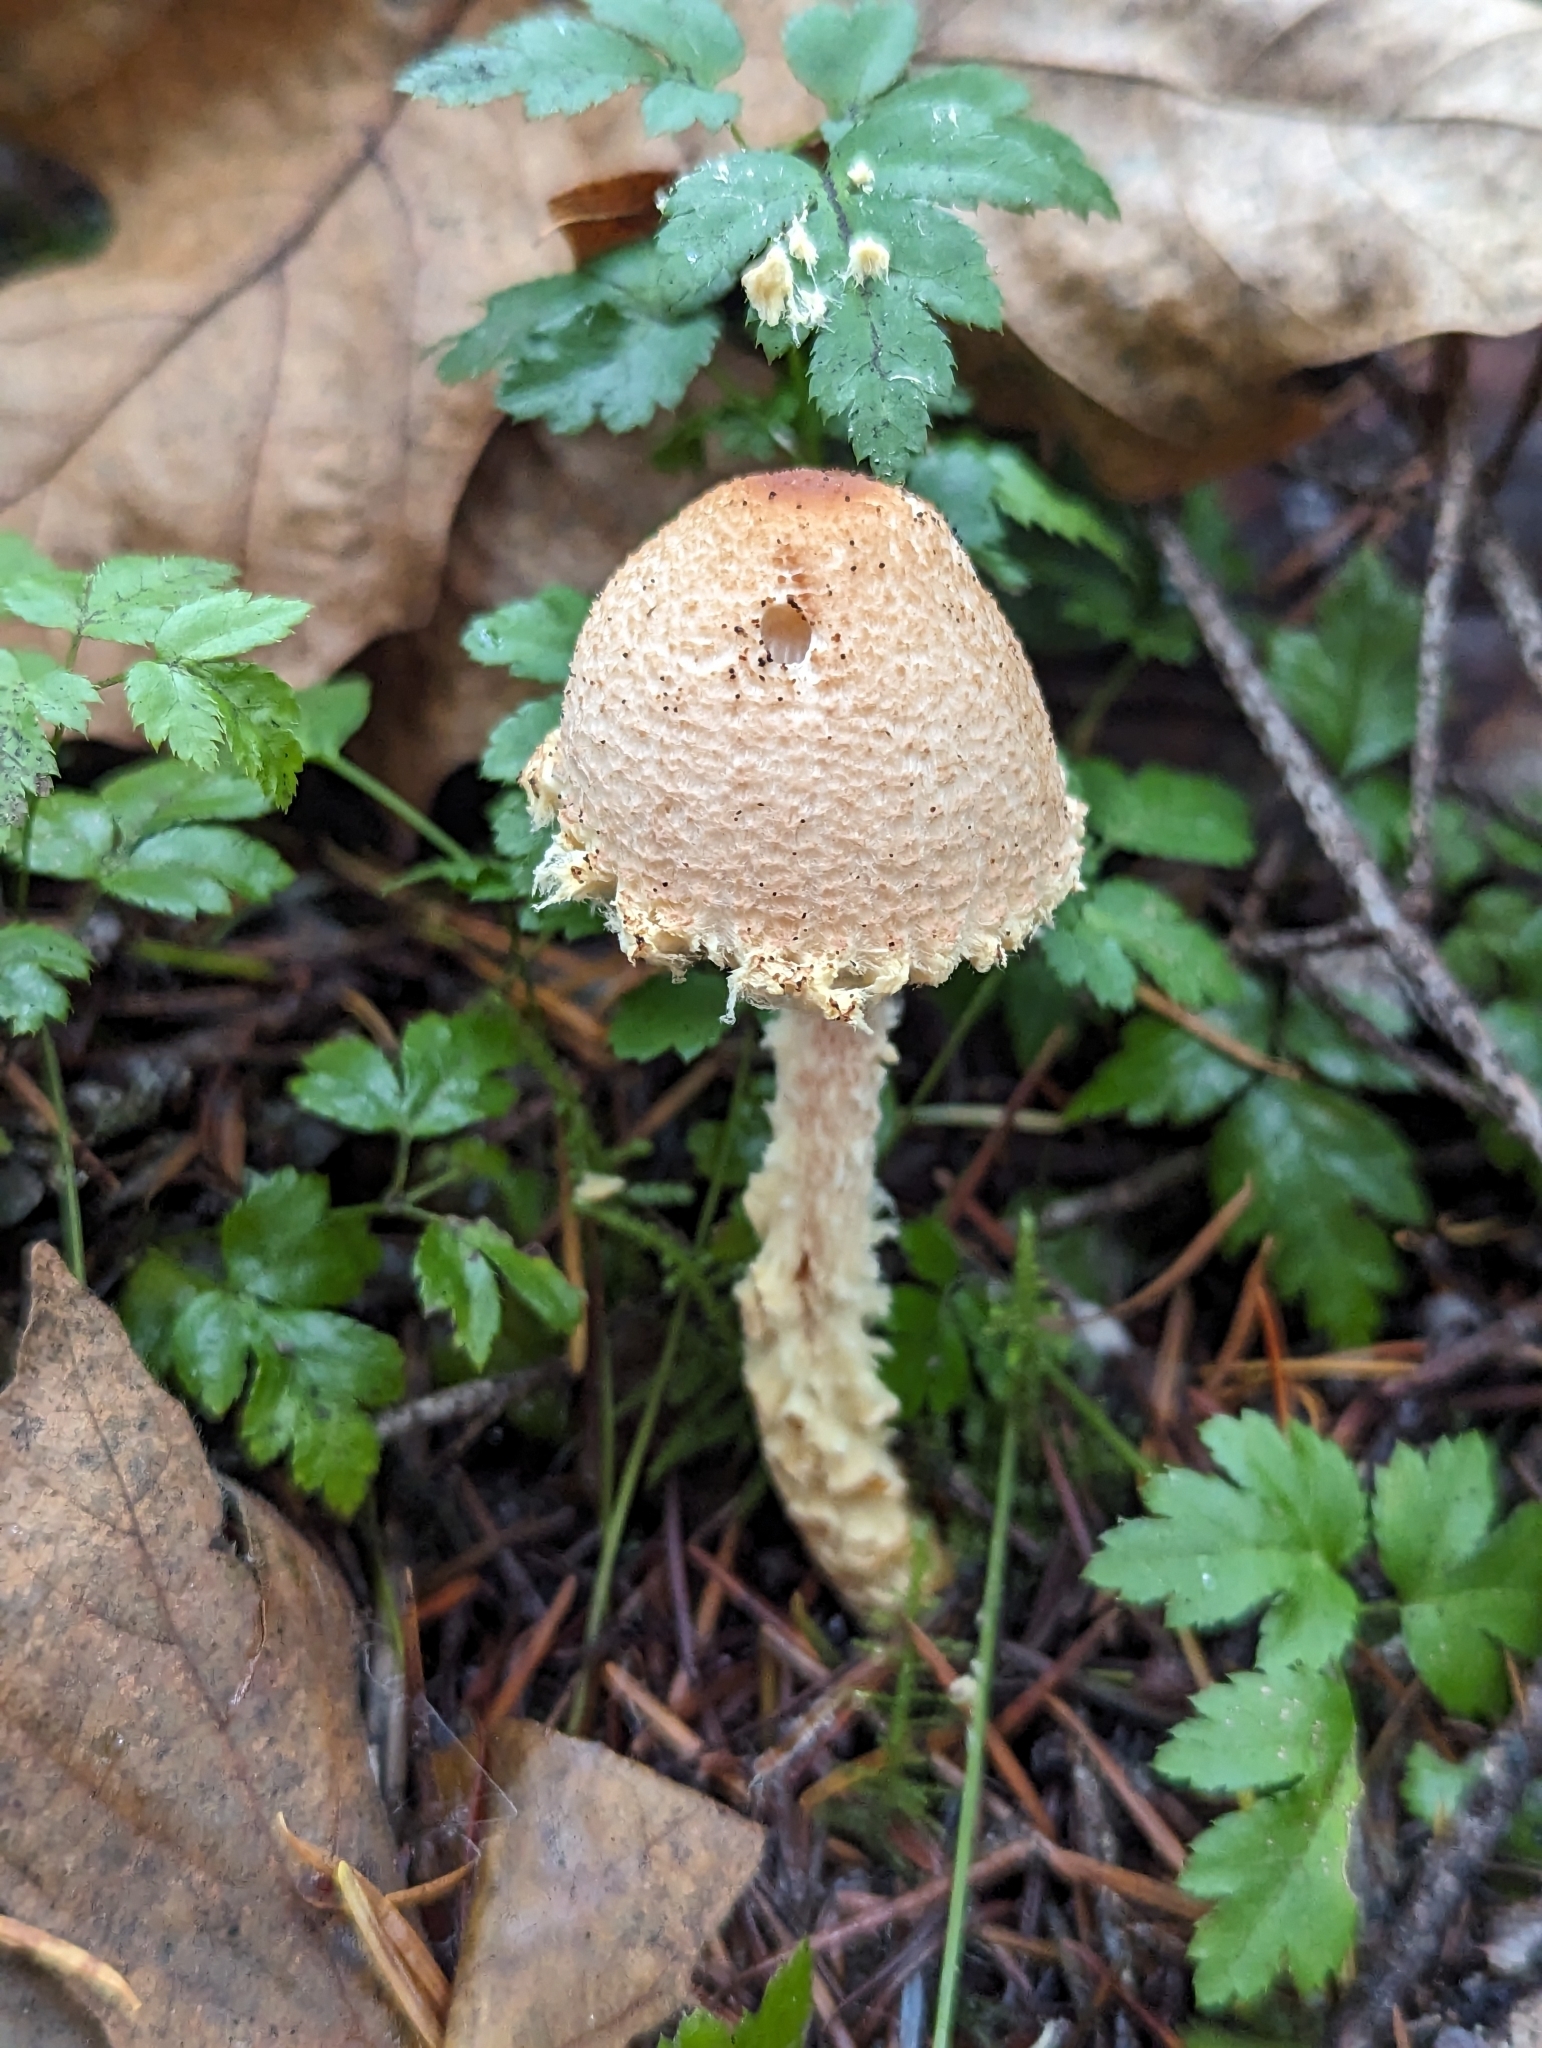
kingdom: Fungi
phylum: Basidiomycota
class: Agaricomycetes
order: Agaricales
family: Agaricaceae
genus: Lepiota
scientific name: Lepiota magnispora
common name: Yellowfoot dapperling
